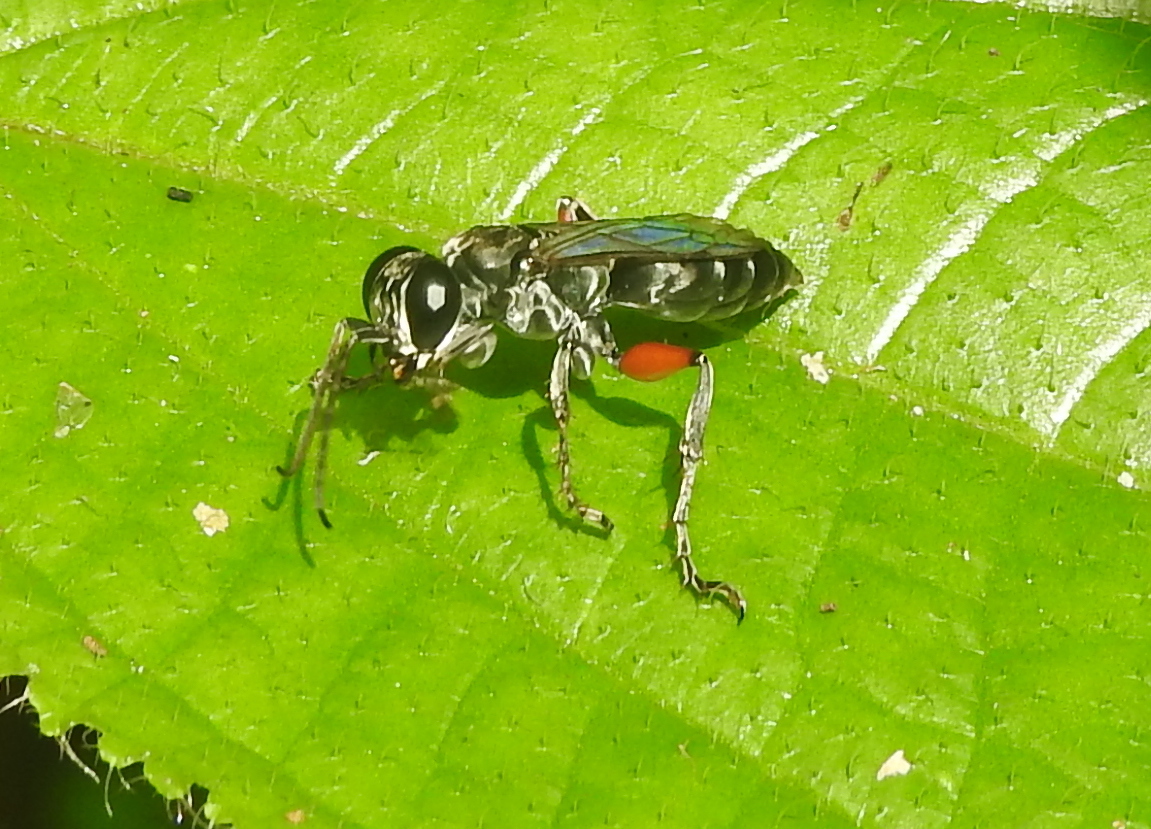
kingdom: Animalia
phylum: Arthropoda
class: Insecta
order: Hymenoptera
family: Crabronidae
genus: Liris
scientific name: Liris subtessellatus
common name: Crabronid wasp
